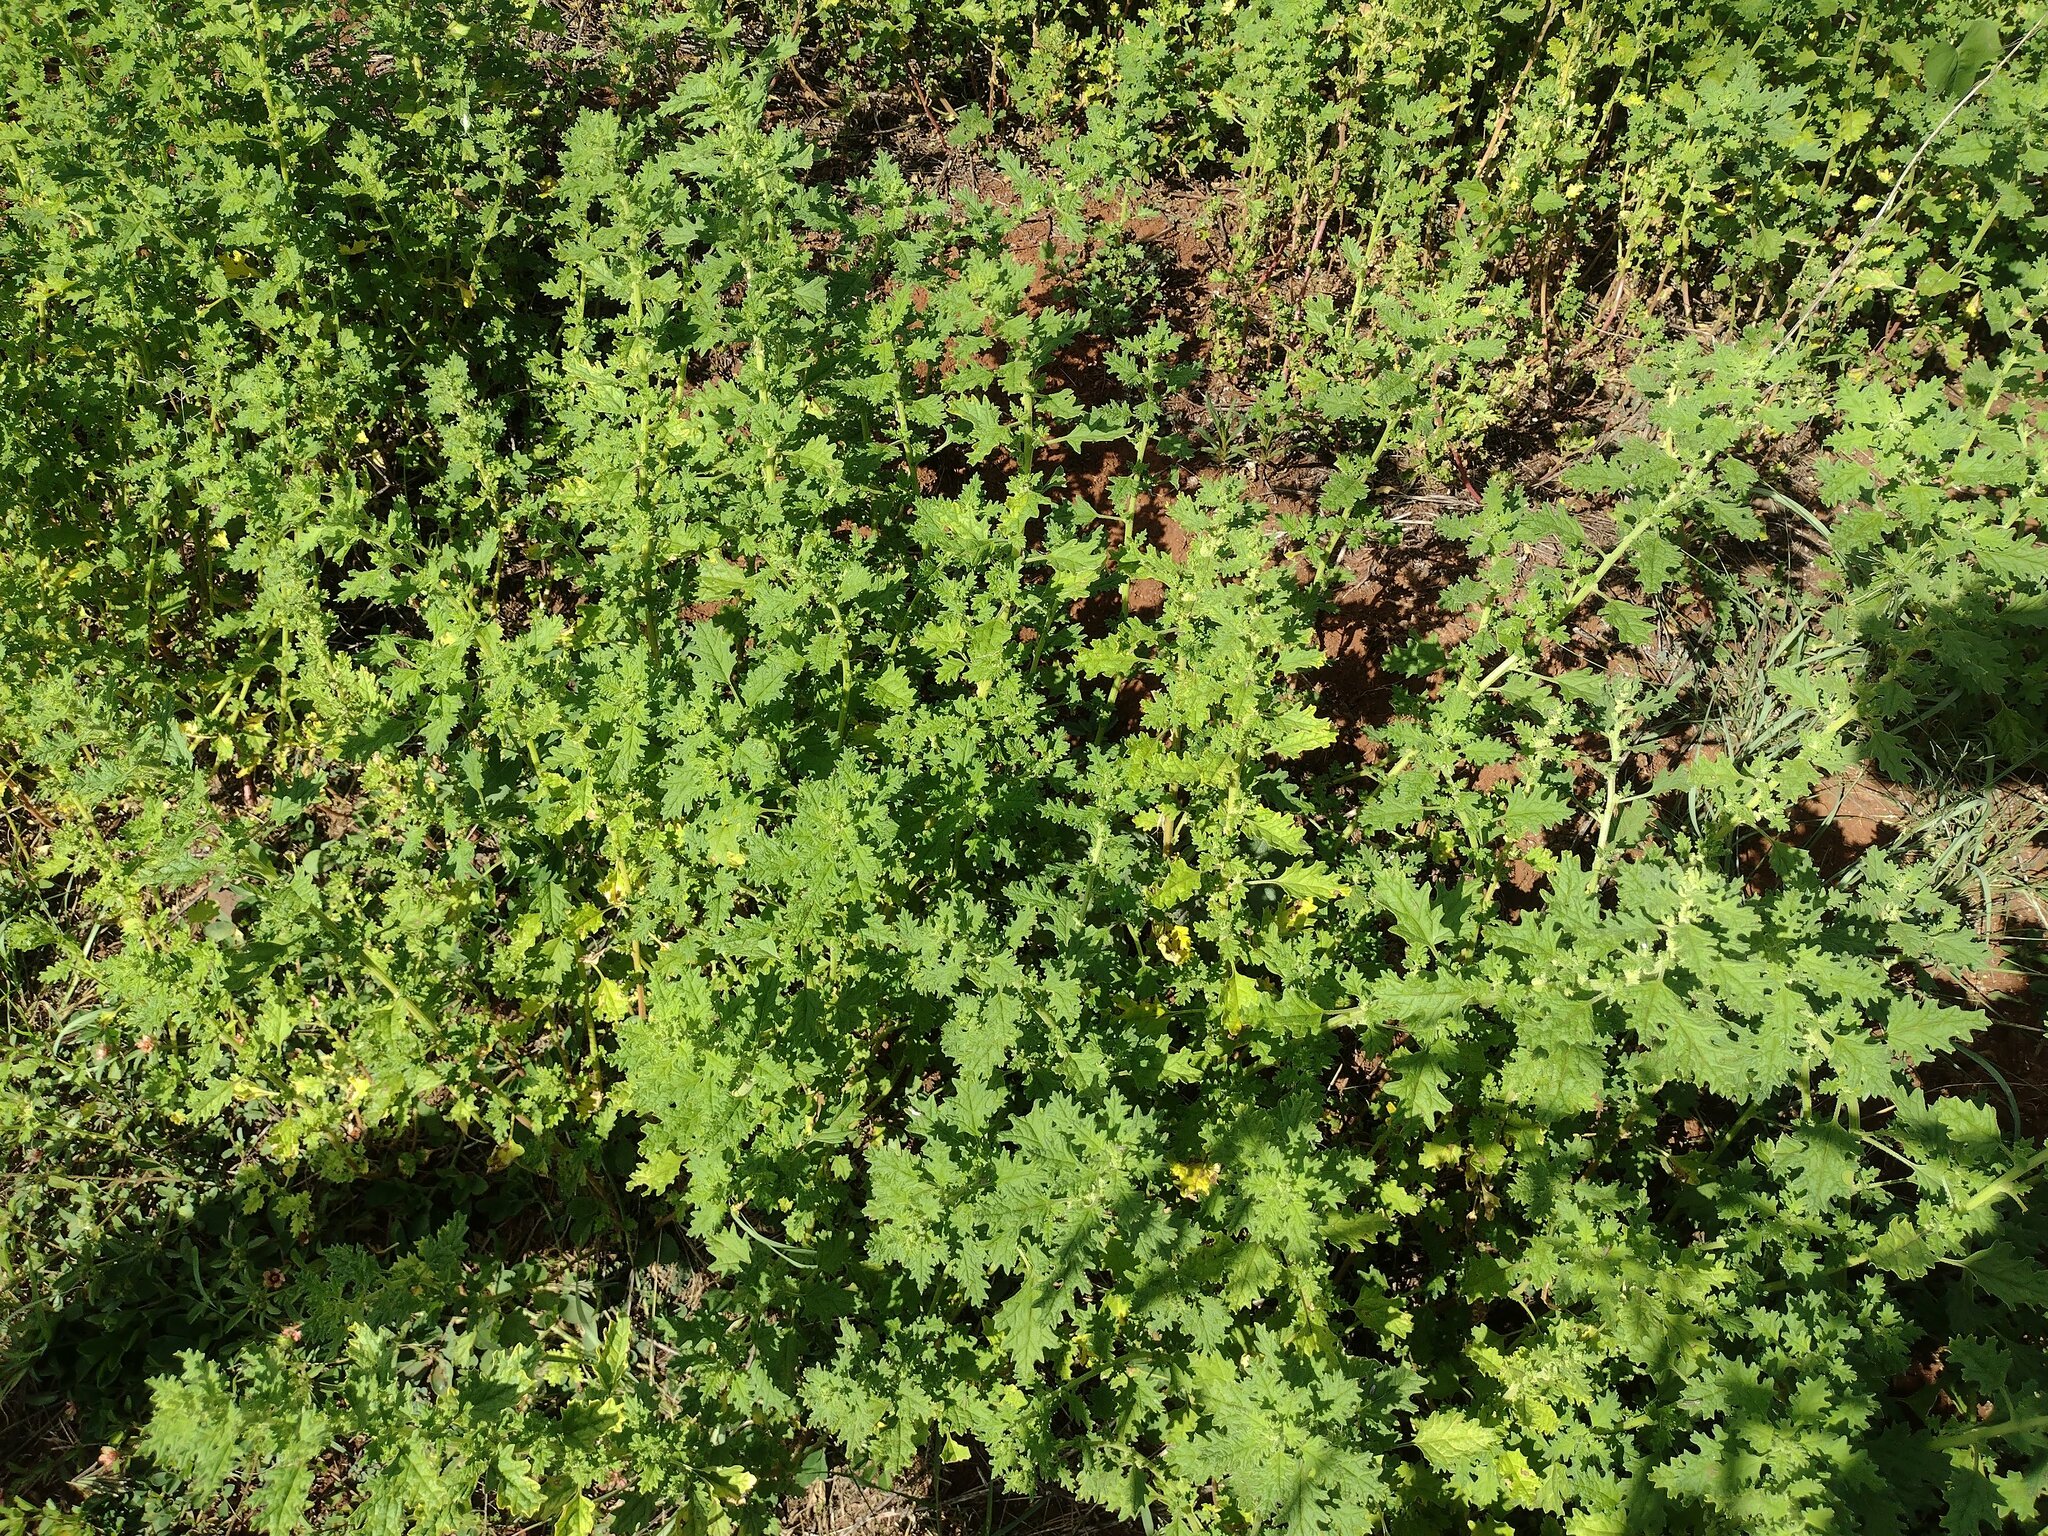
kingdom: Plantae
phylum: Tracheophyta
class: Magnoliopsida
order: Caryophyllales
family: Amaranthaceae
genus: Dysphania
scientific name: Dysphania carinata
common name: Keeled wormseed
